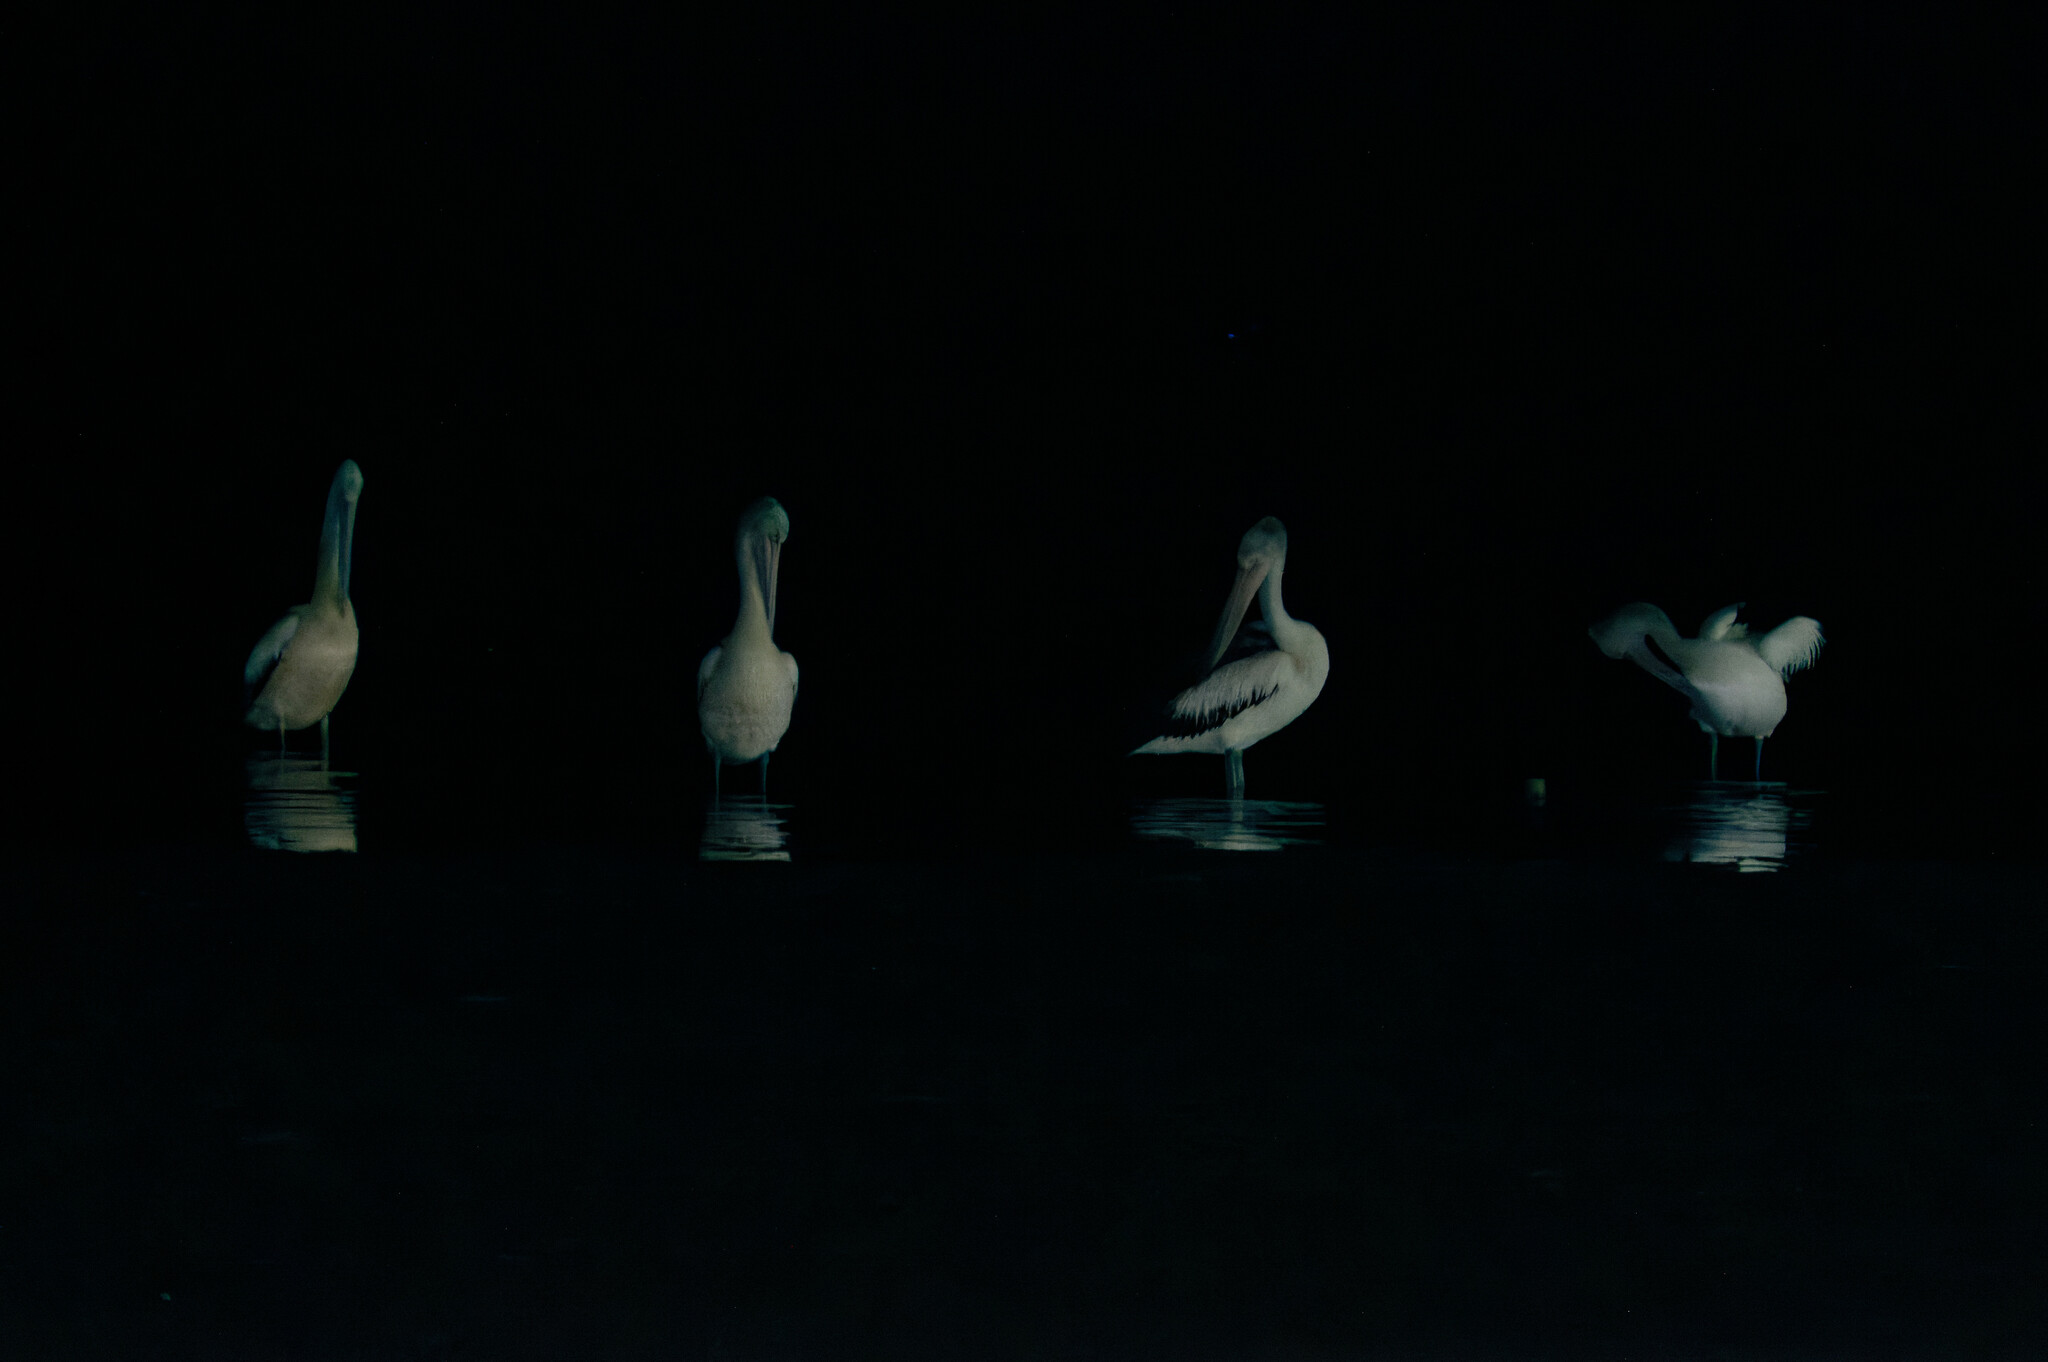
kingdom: Animalia
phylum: Chordata
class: Aves
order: Pelecaniformes
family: Pelecanidae
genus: Pelecanus
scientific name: Pelecanus conspicillatus
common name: Australian pelican
